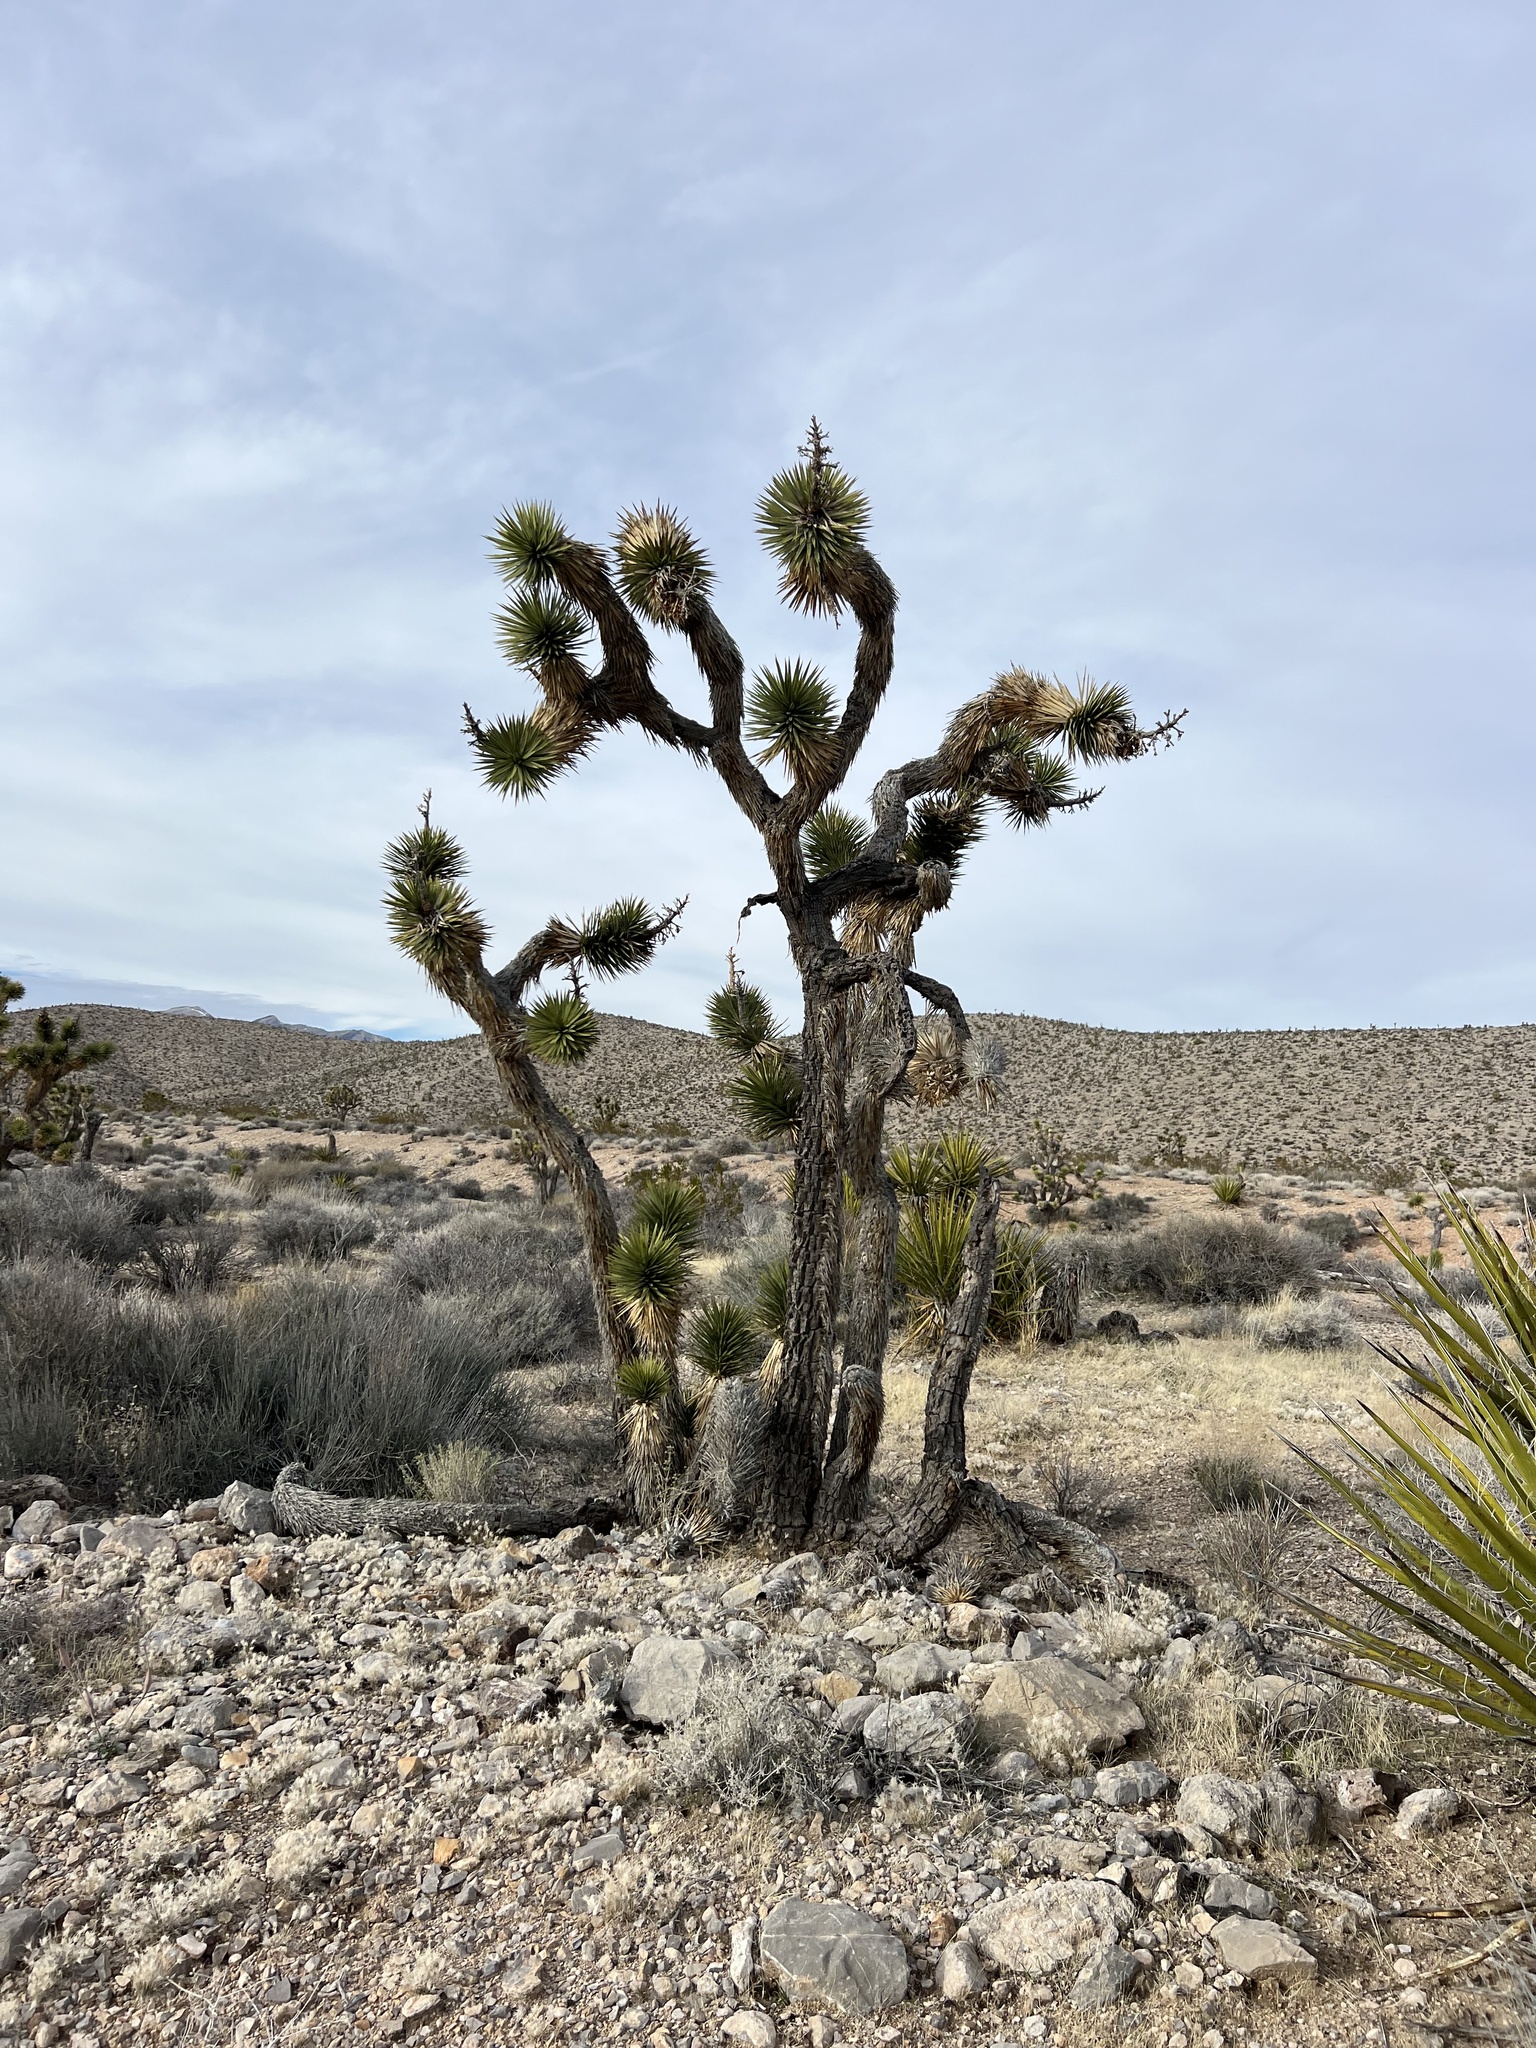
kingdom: Plantae
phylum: Tracheophyta
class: Liliopsida
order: Asparagales
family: Asparagaceae
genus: Yucca
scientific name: Yucca brevifolia
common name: Joshua tree
